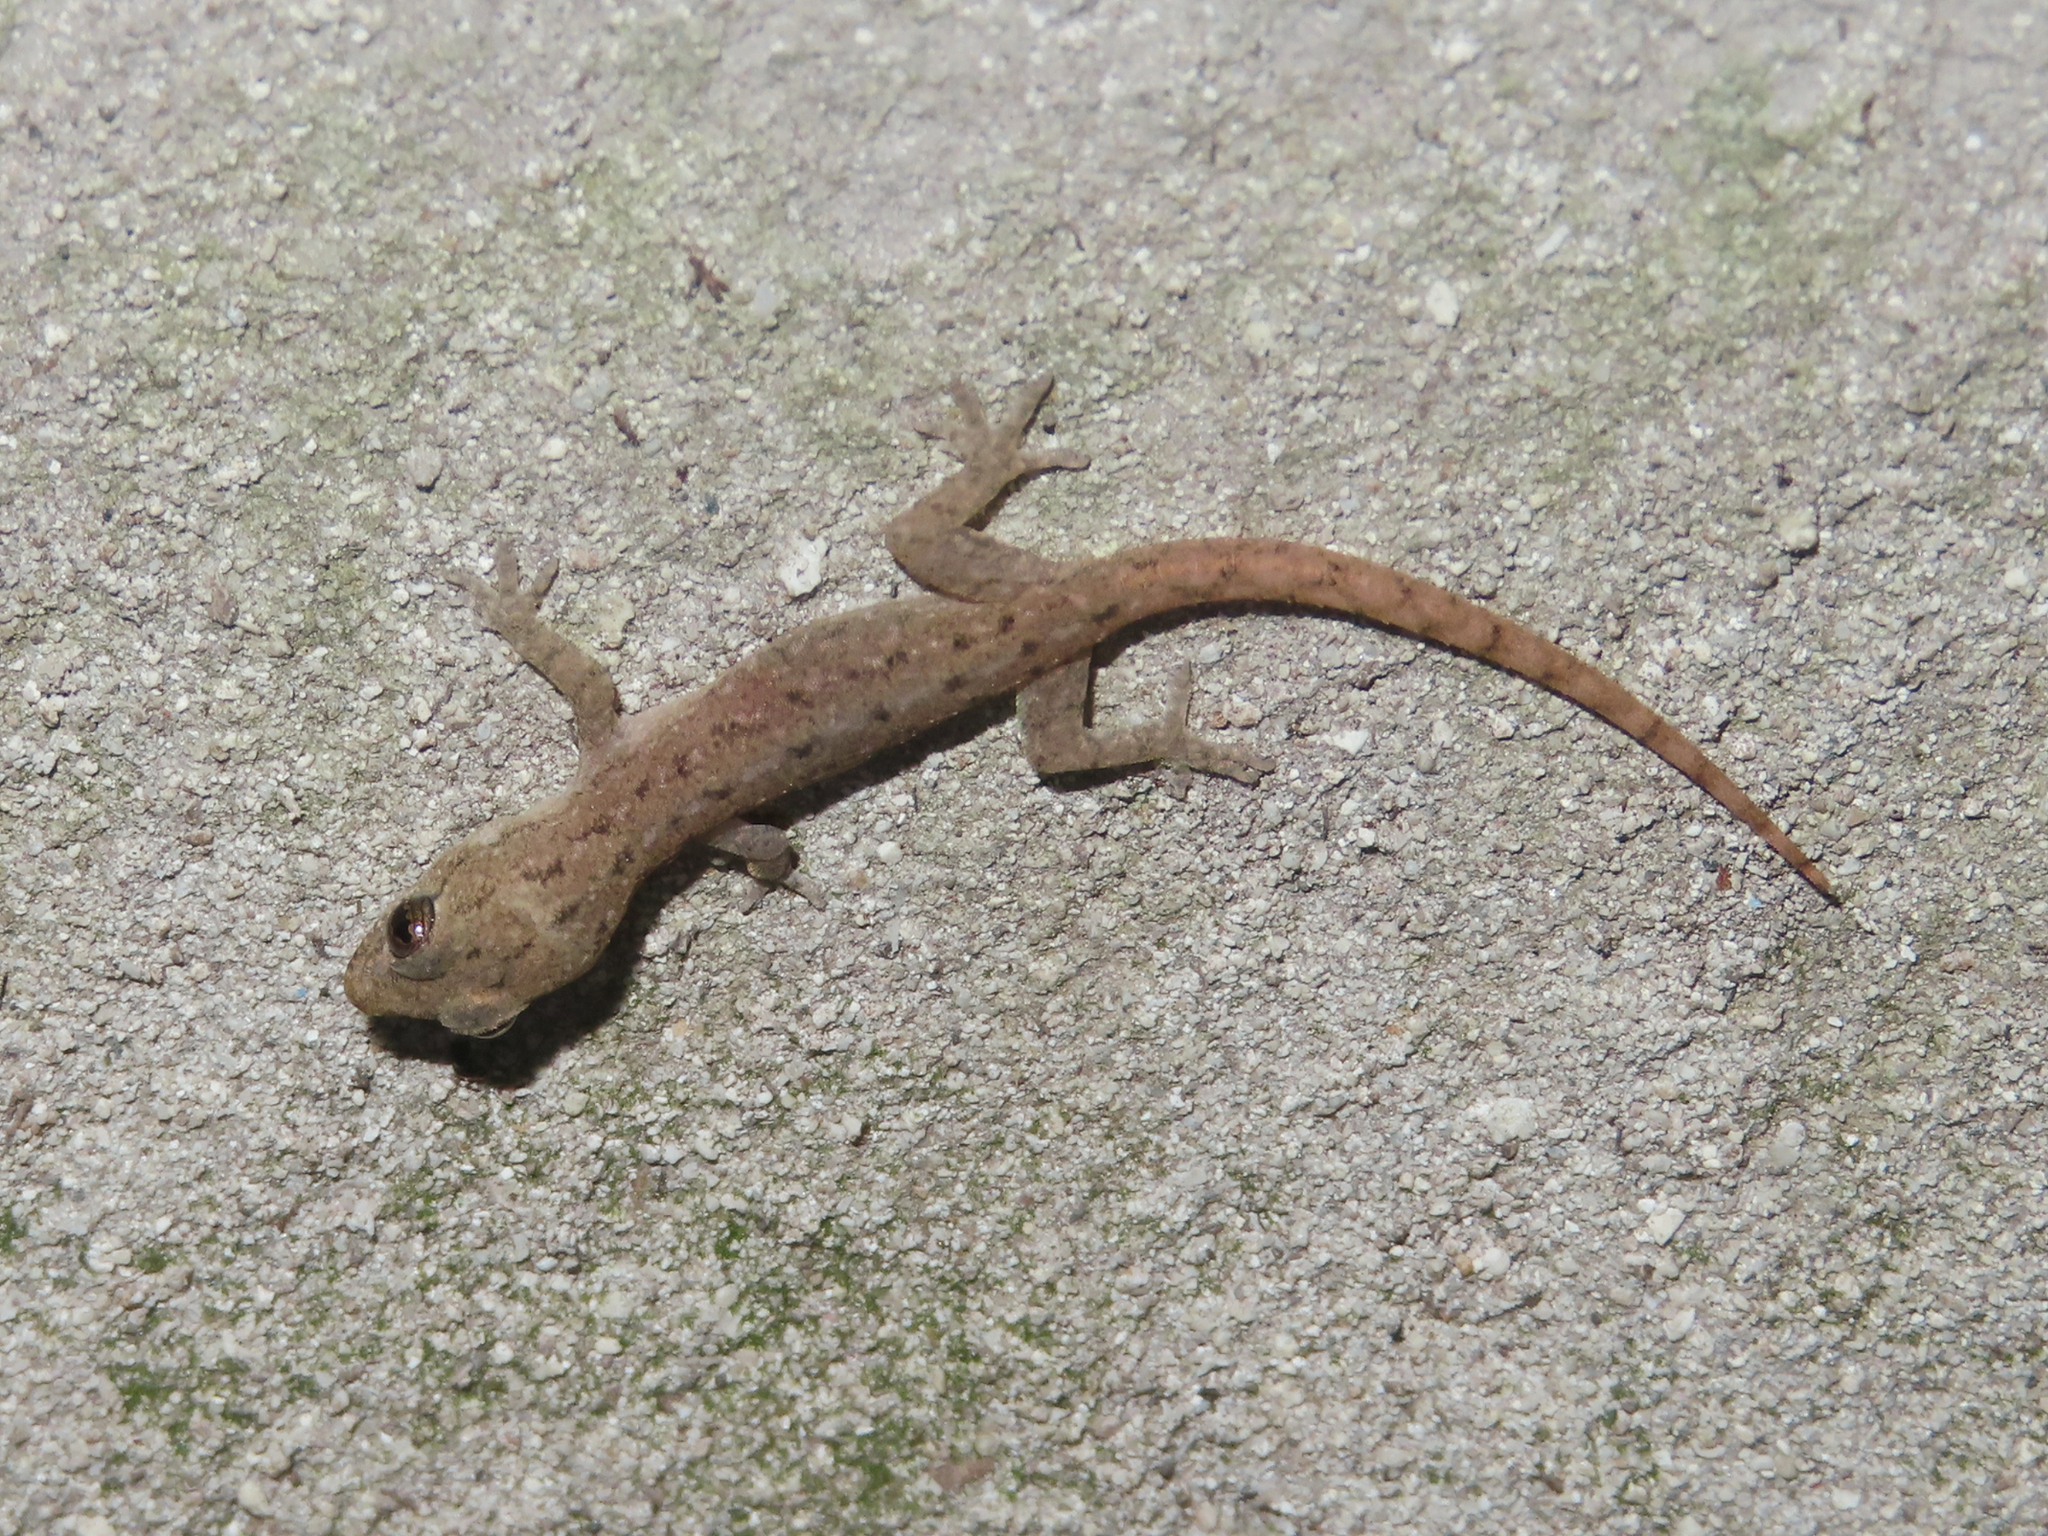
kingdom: Animalia
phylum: Chordata
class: Squamata
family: Gekkonidae
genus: Hemidactylus
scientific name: Hemidactylus frenatus
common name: Common house gecko
